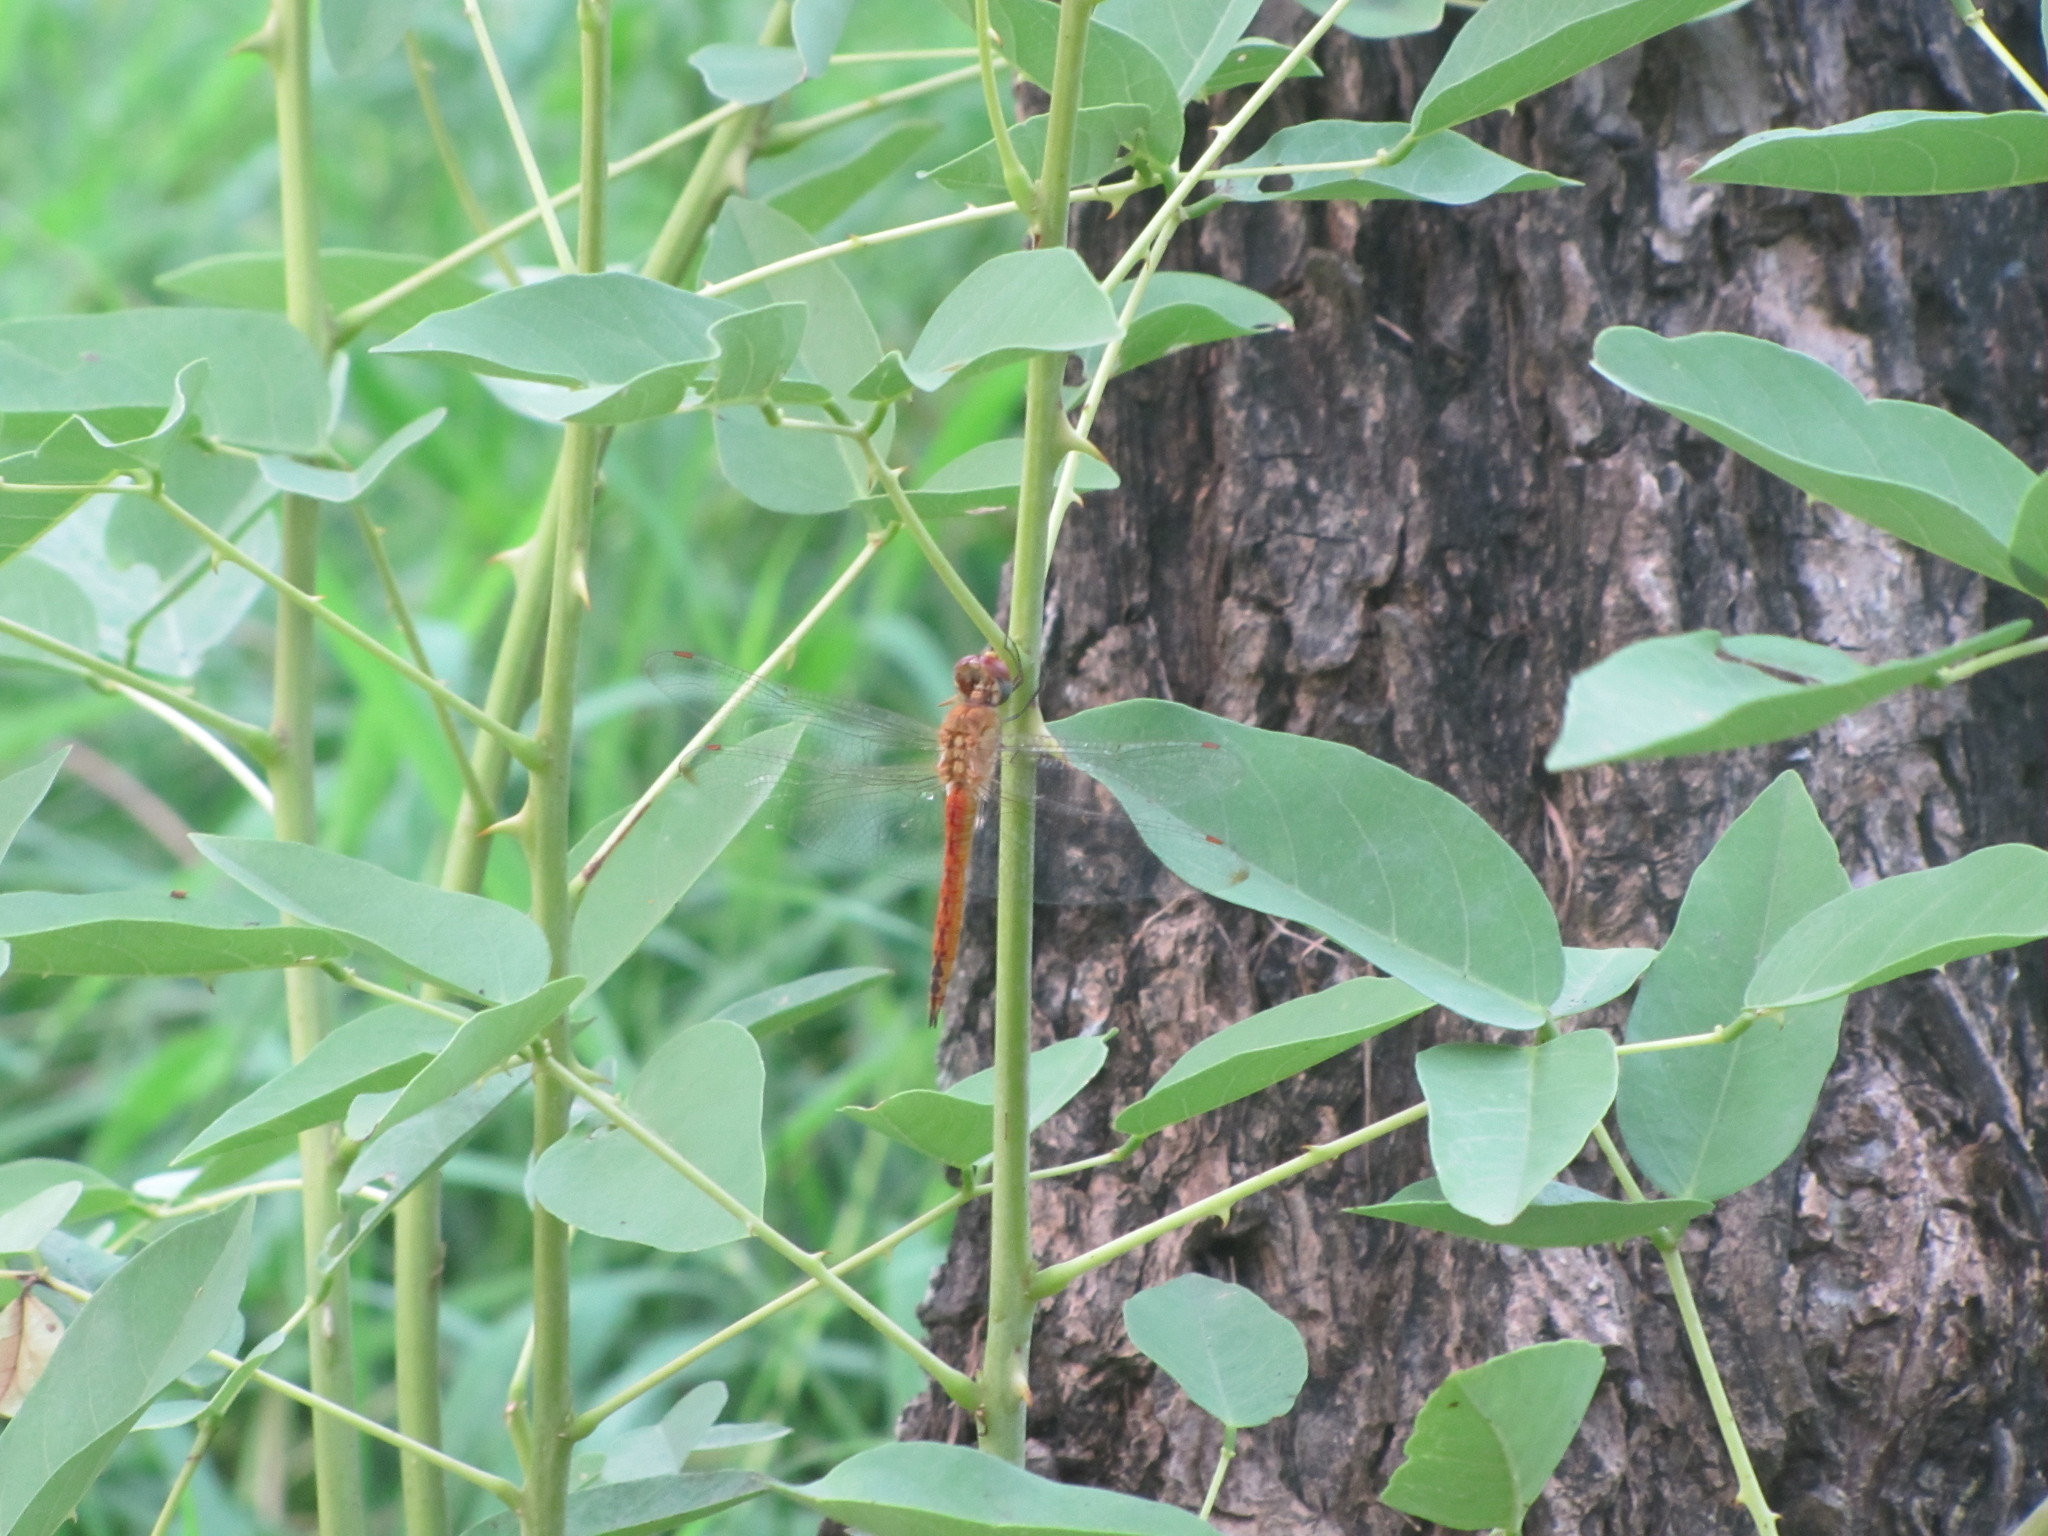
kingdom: Animalia
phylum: Arthropoda
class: Insecta
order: Odonata
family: Libellulidae
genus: Pantala
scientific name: Pantala flavescens
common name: Wandering glider
